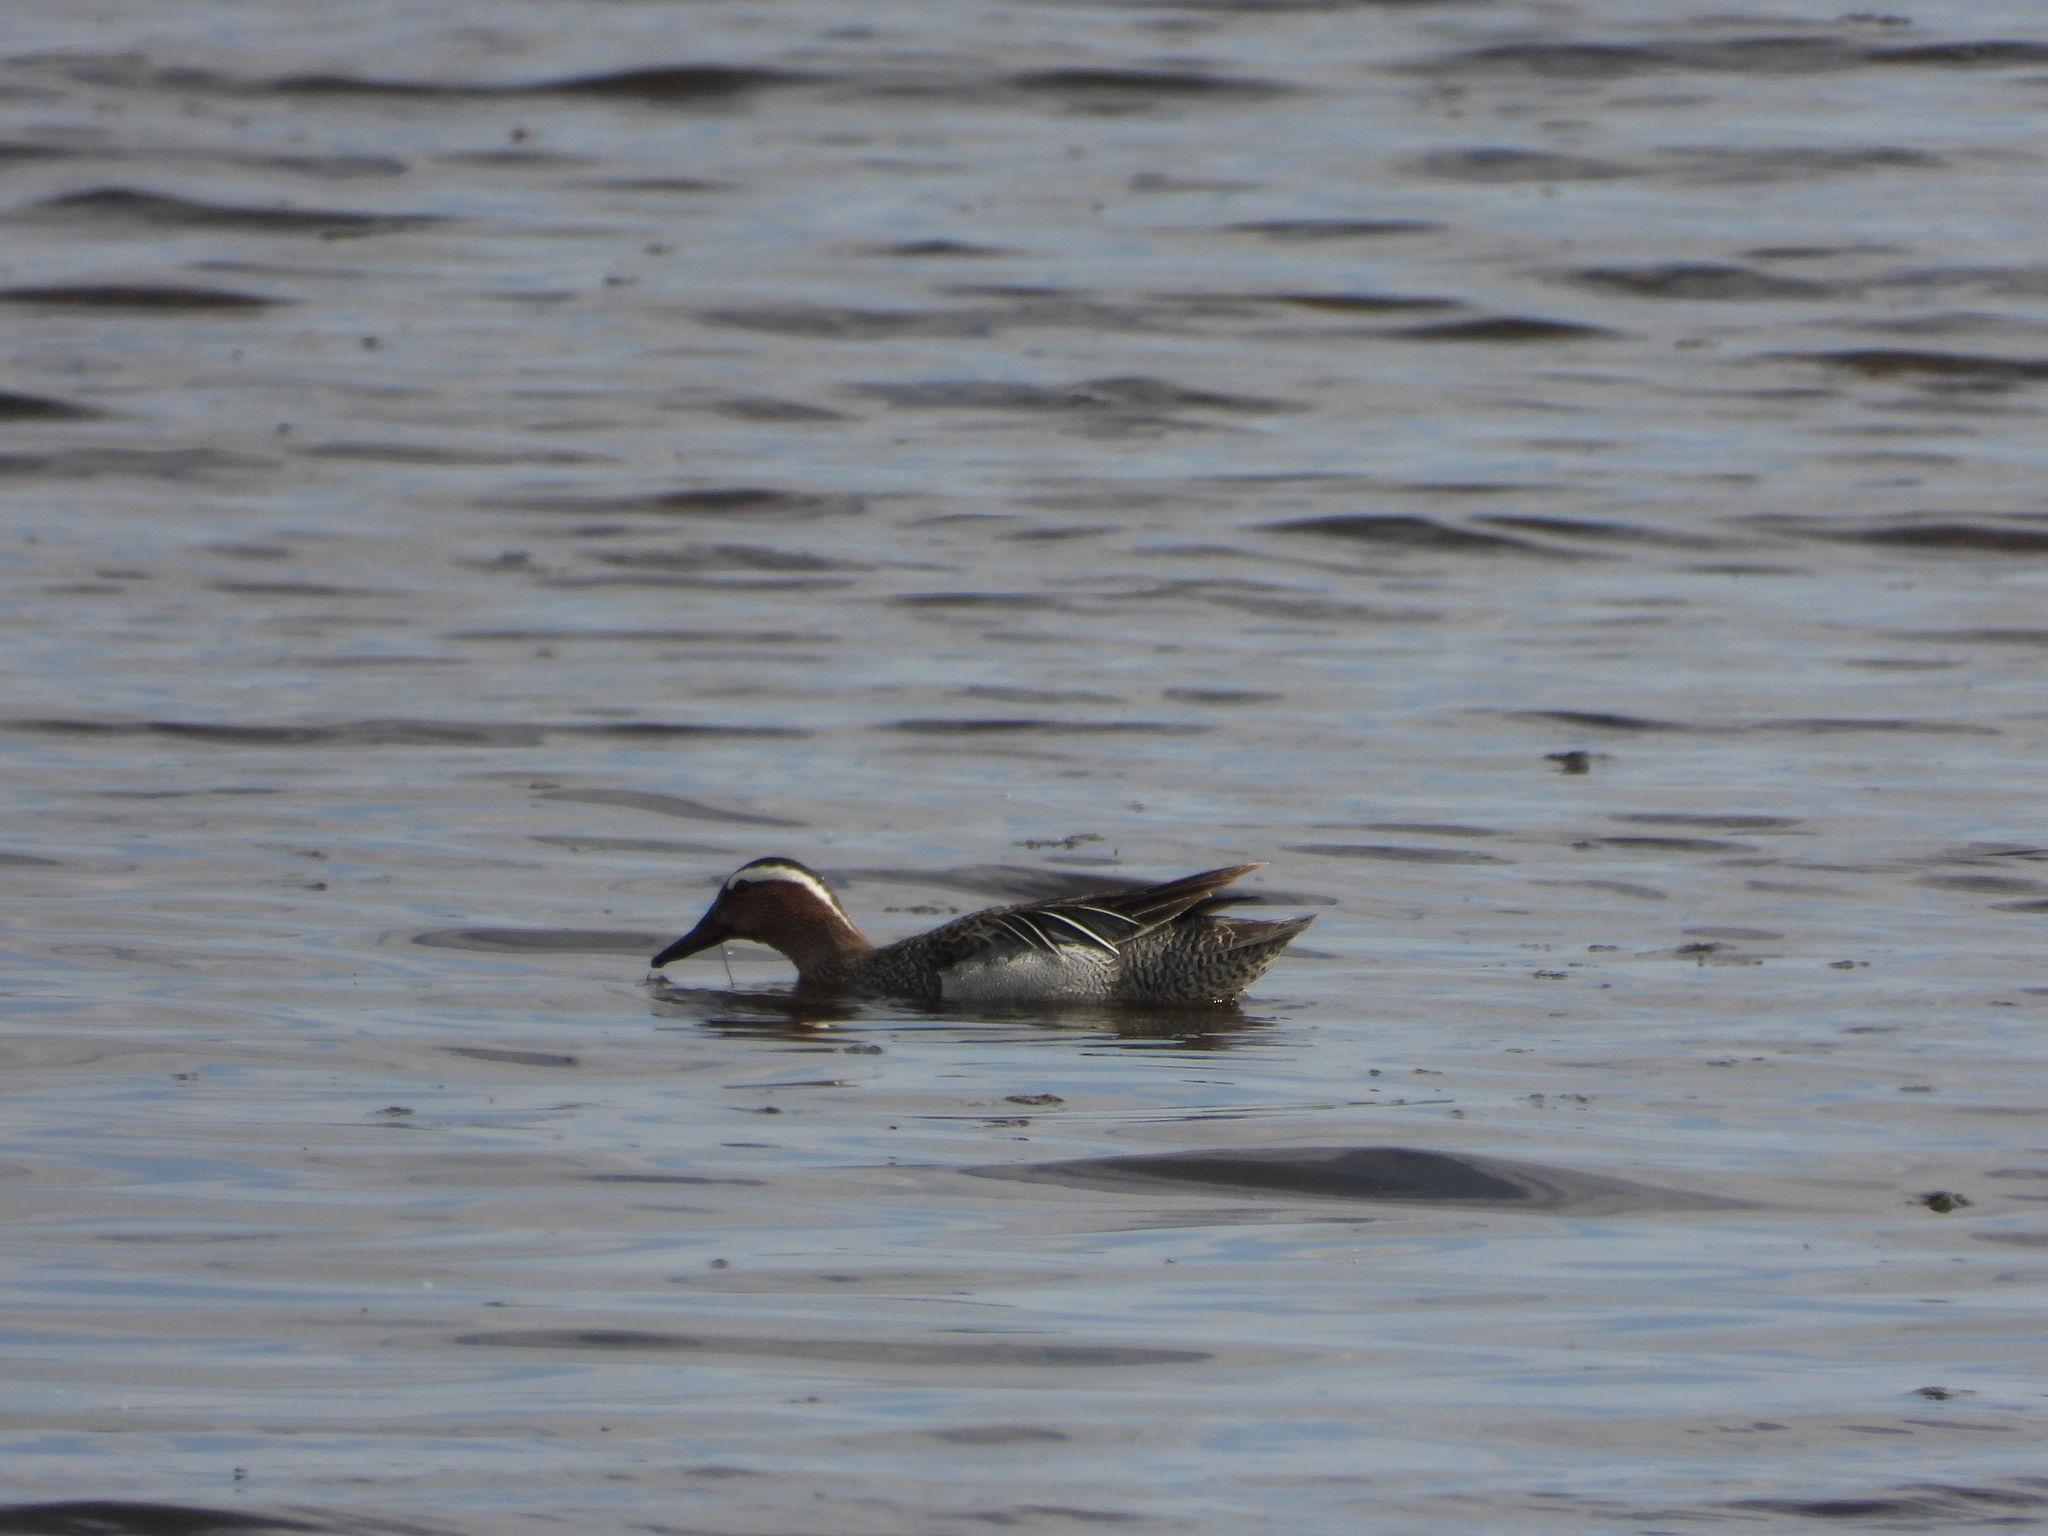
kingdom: Animalia
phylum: Chordata
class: Aves
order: Anseriformes
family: Anatidae
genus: Spatula
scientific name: Spatula querquedula
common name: Garganey
